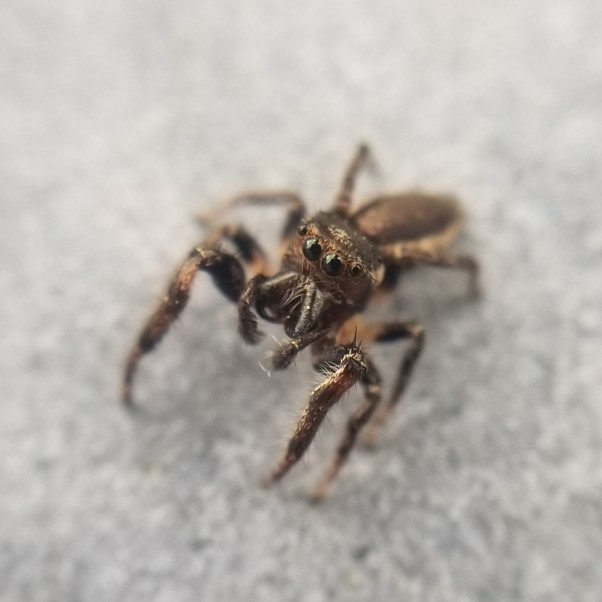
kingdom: Animalia
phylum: Arthropoda
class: Arachnida
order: Araneae
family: Salticidae
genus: Eris
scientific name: Eris militaris
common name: Bronze jumper
